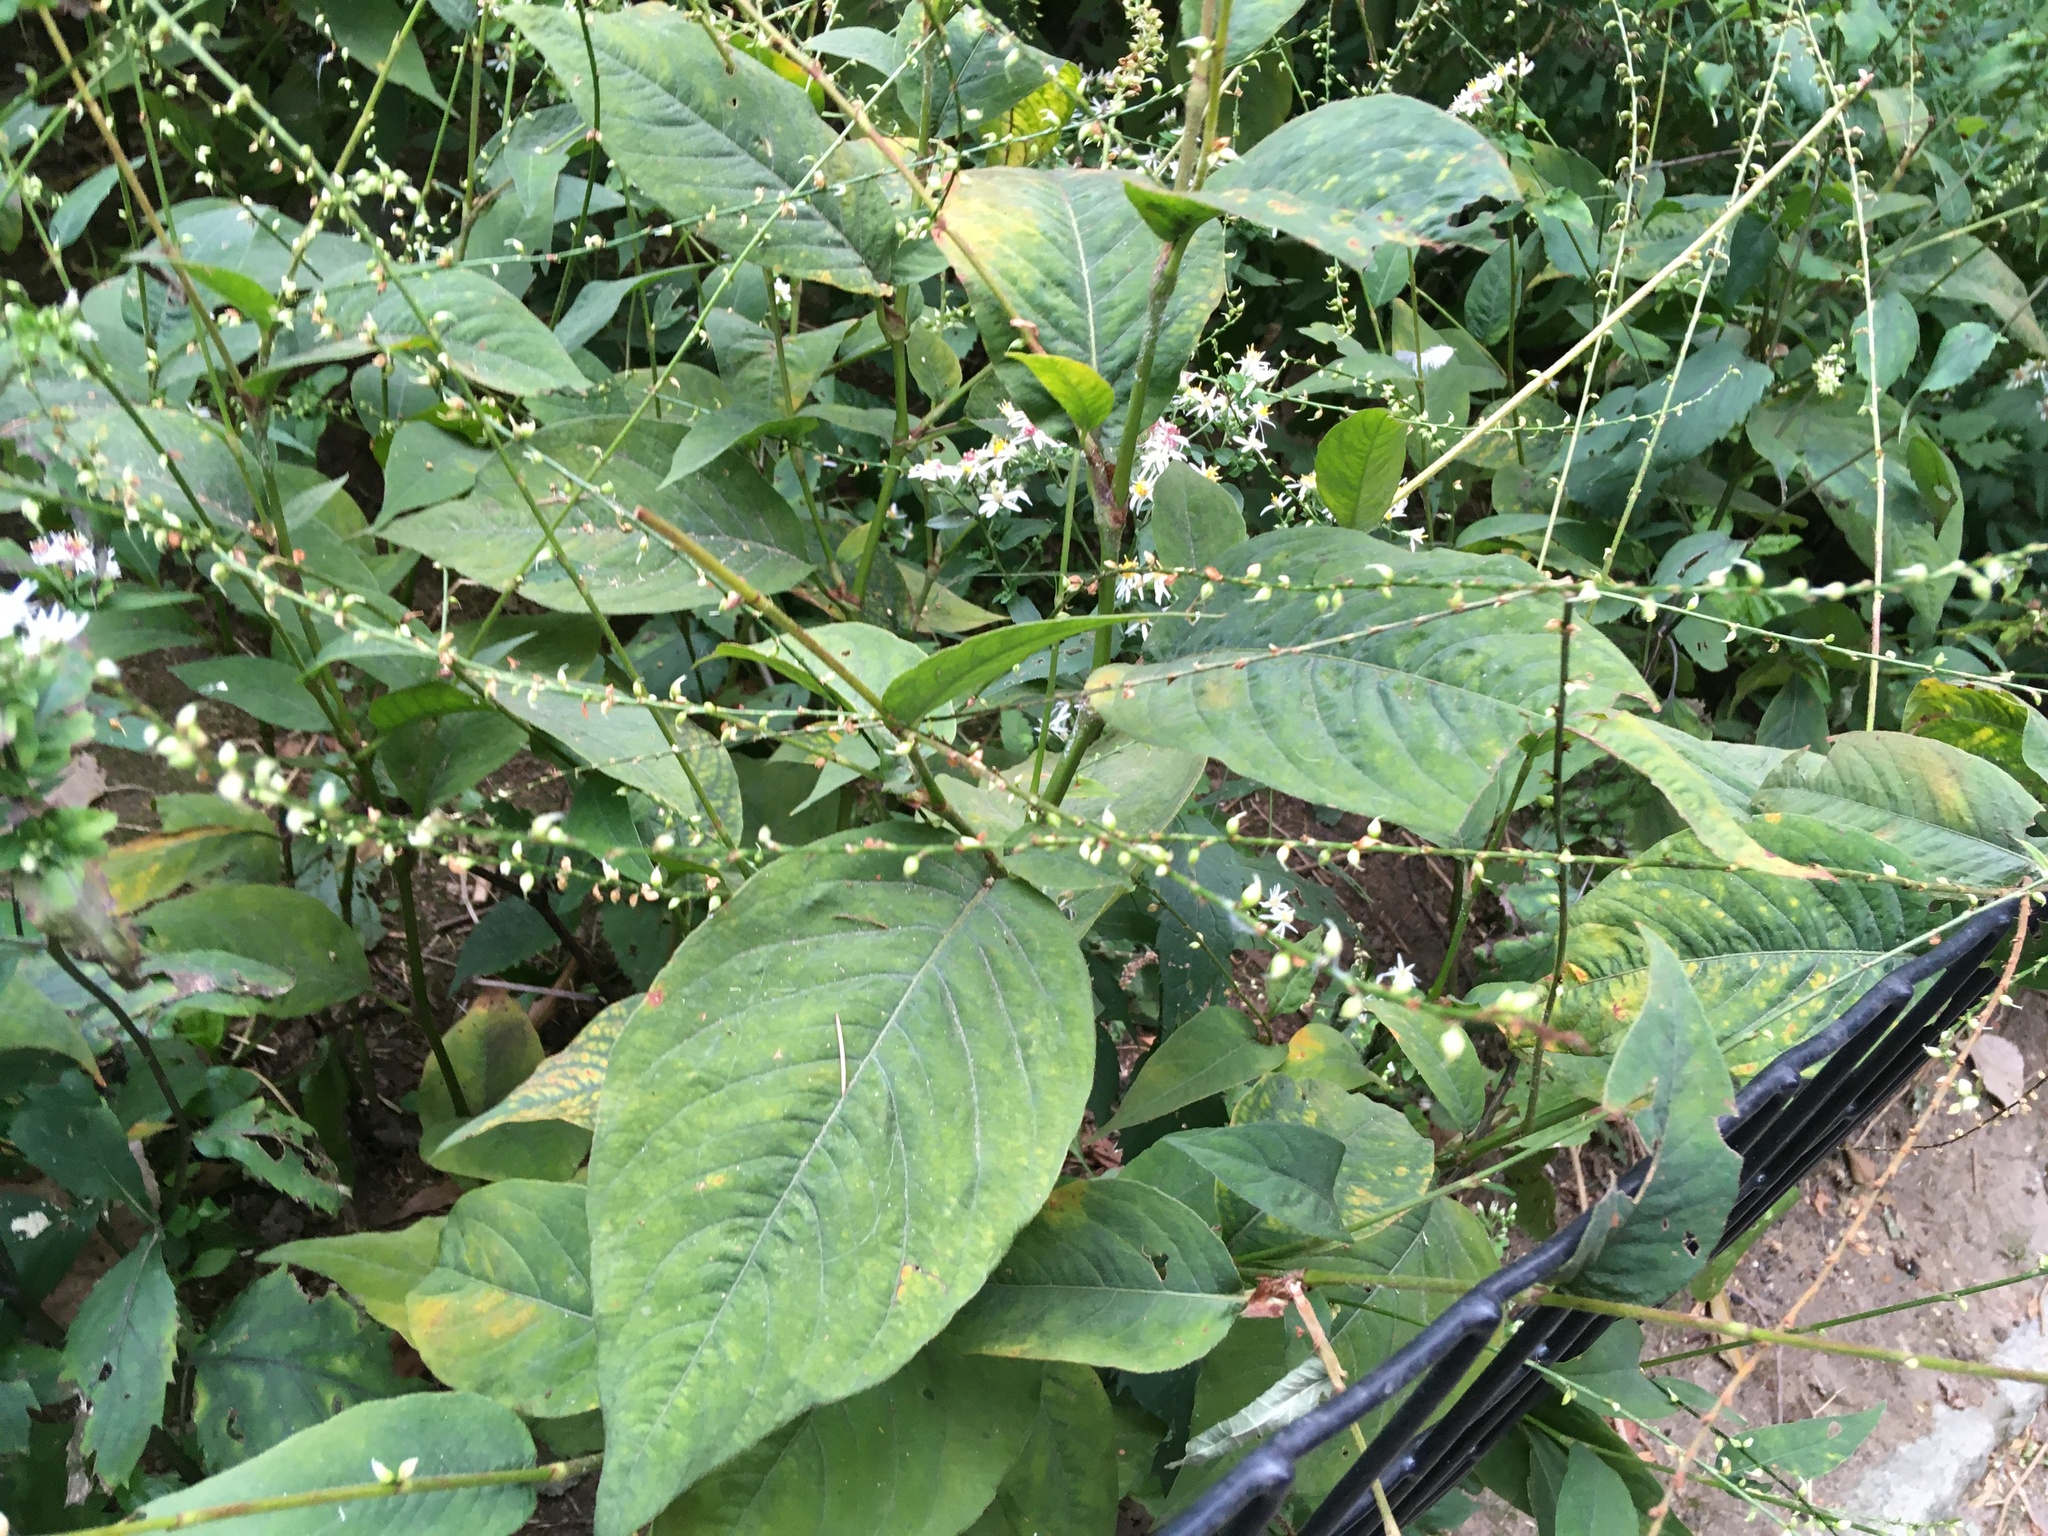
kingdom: Plantae
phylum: Tracheophyta
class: Magnoliopsida
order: Caryophyllales
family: Polygonaceae
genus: Persicaria
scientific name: Persicaria virginiana
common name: Jumpseed
